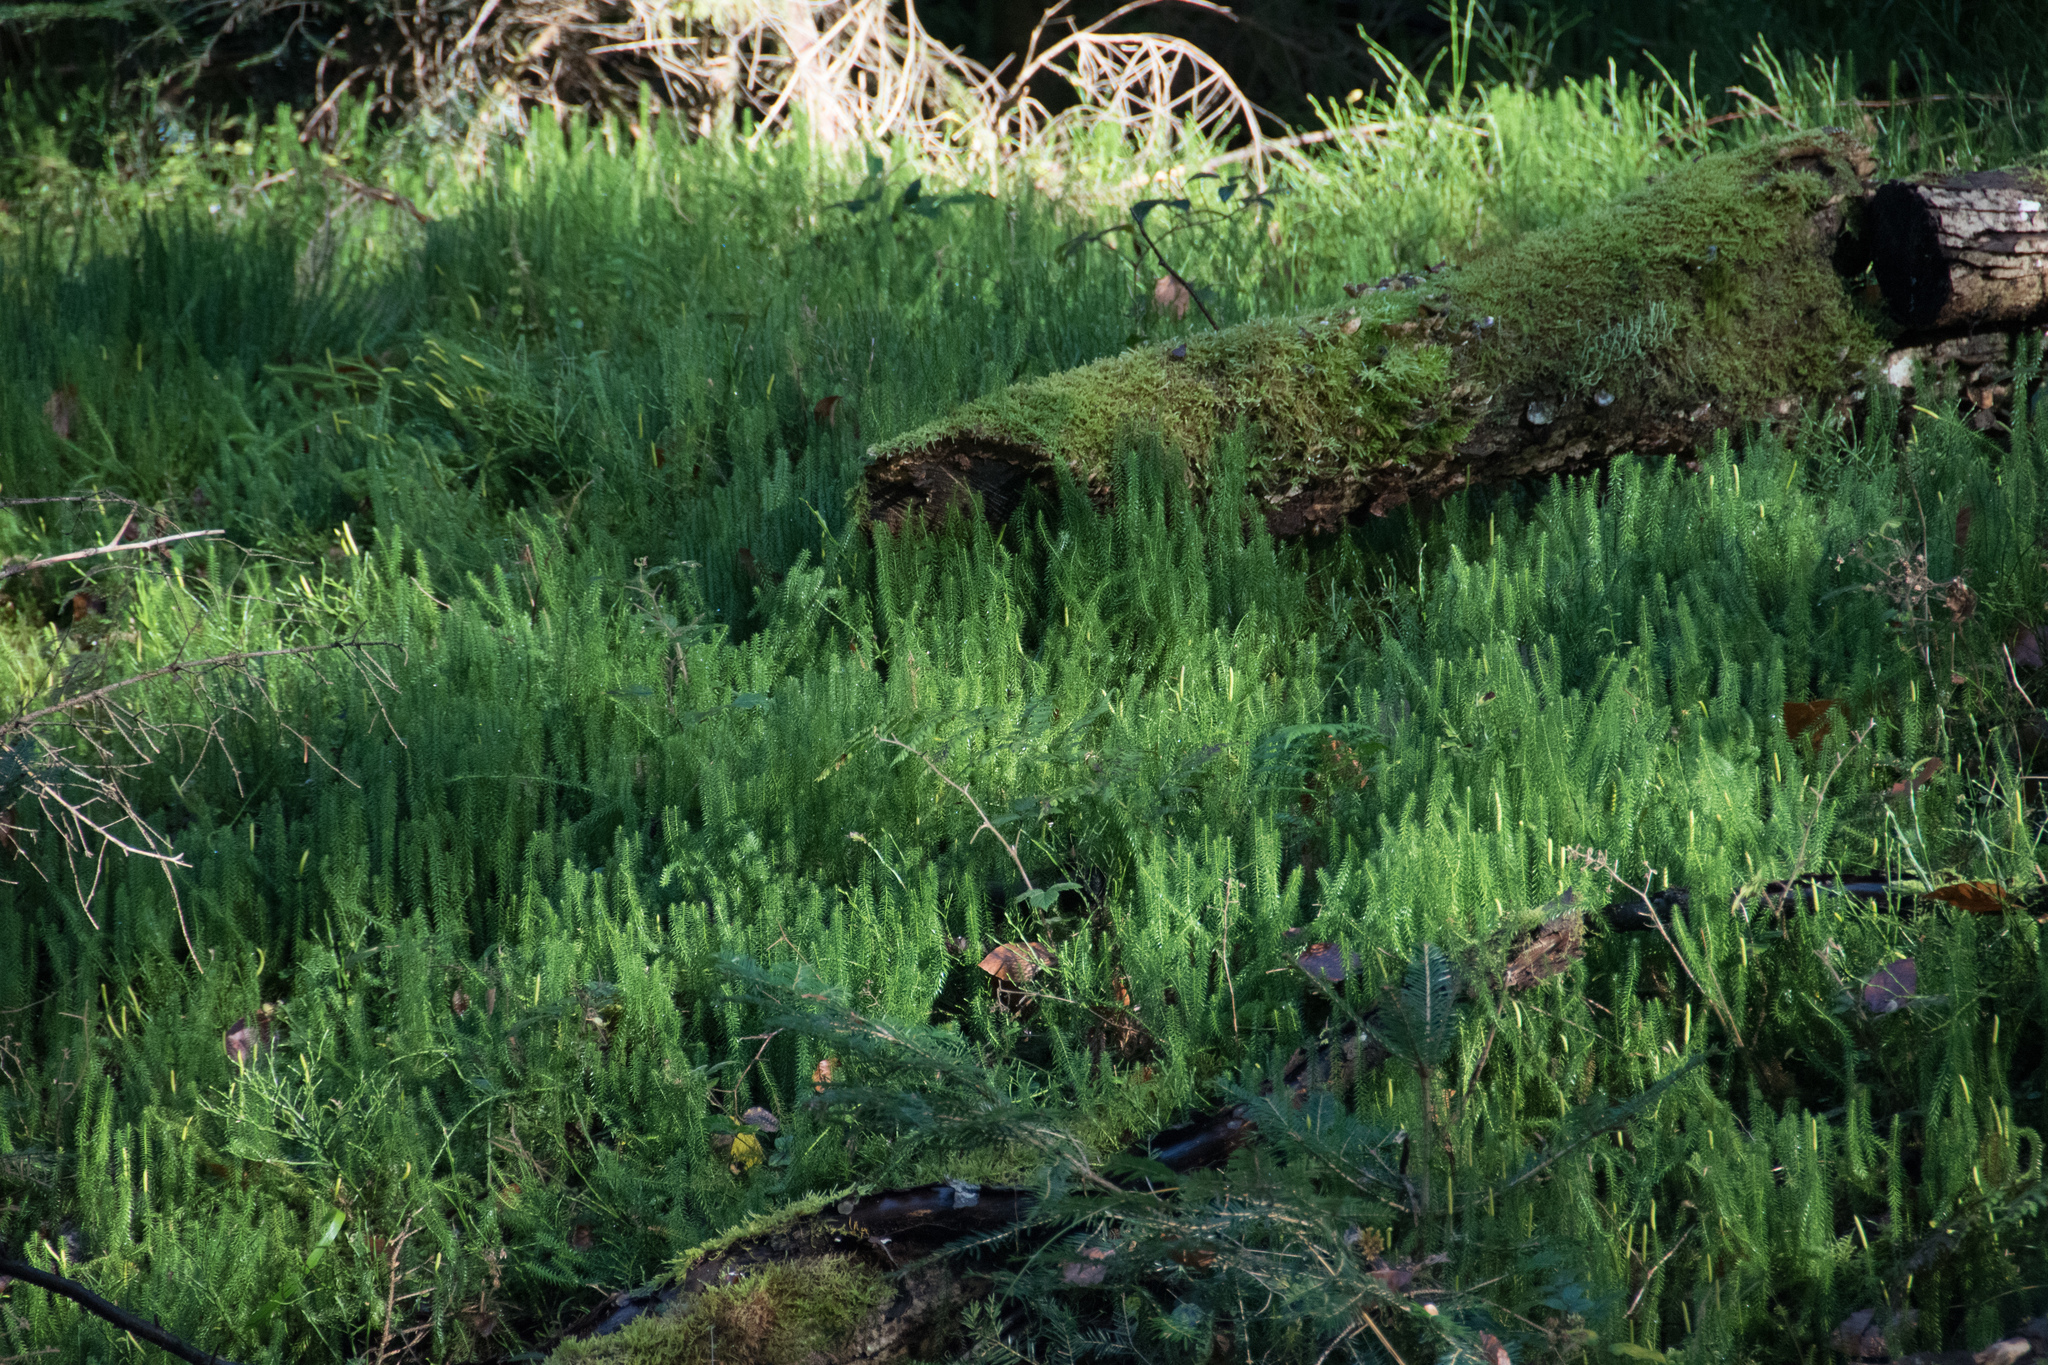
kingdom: Plantae
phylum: Tracheophyta
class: Lycopodiopsida
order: Lycopodiales
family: Lycopodiaceae
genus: Spinulum
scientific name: Spinulum annotinum
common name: Interrupted club-moss
